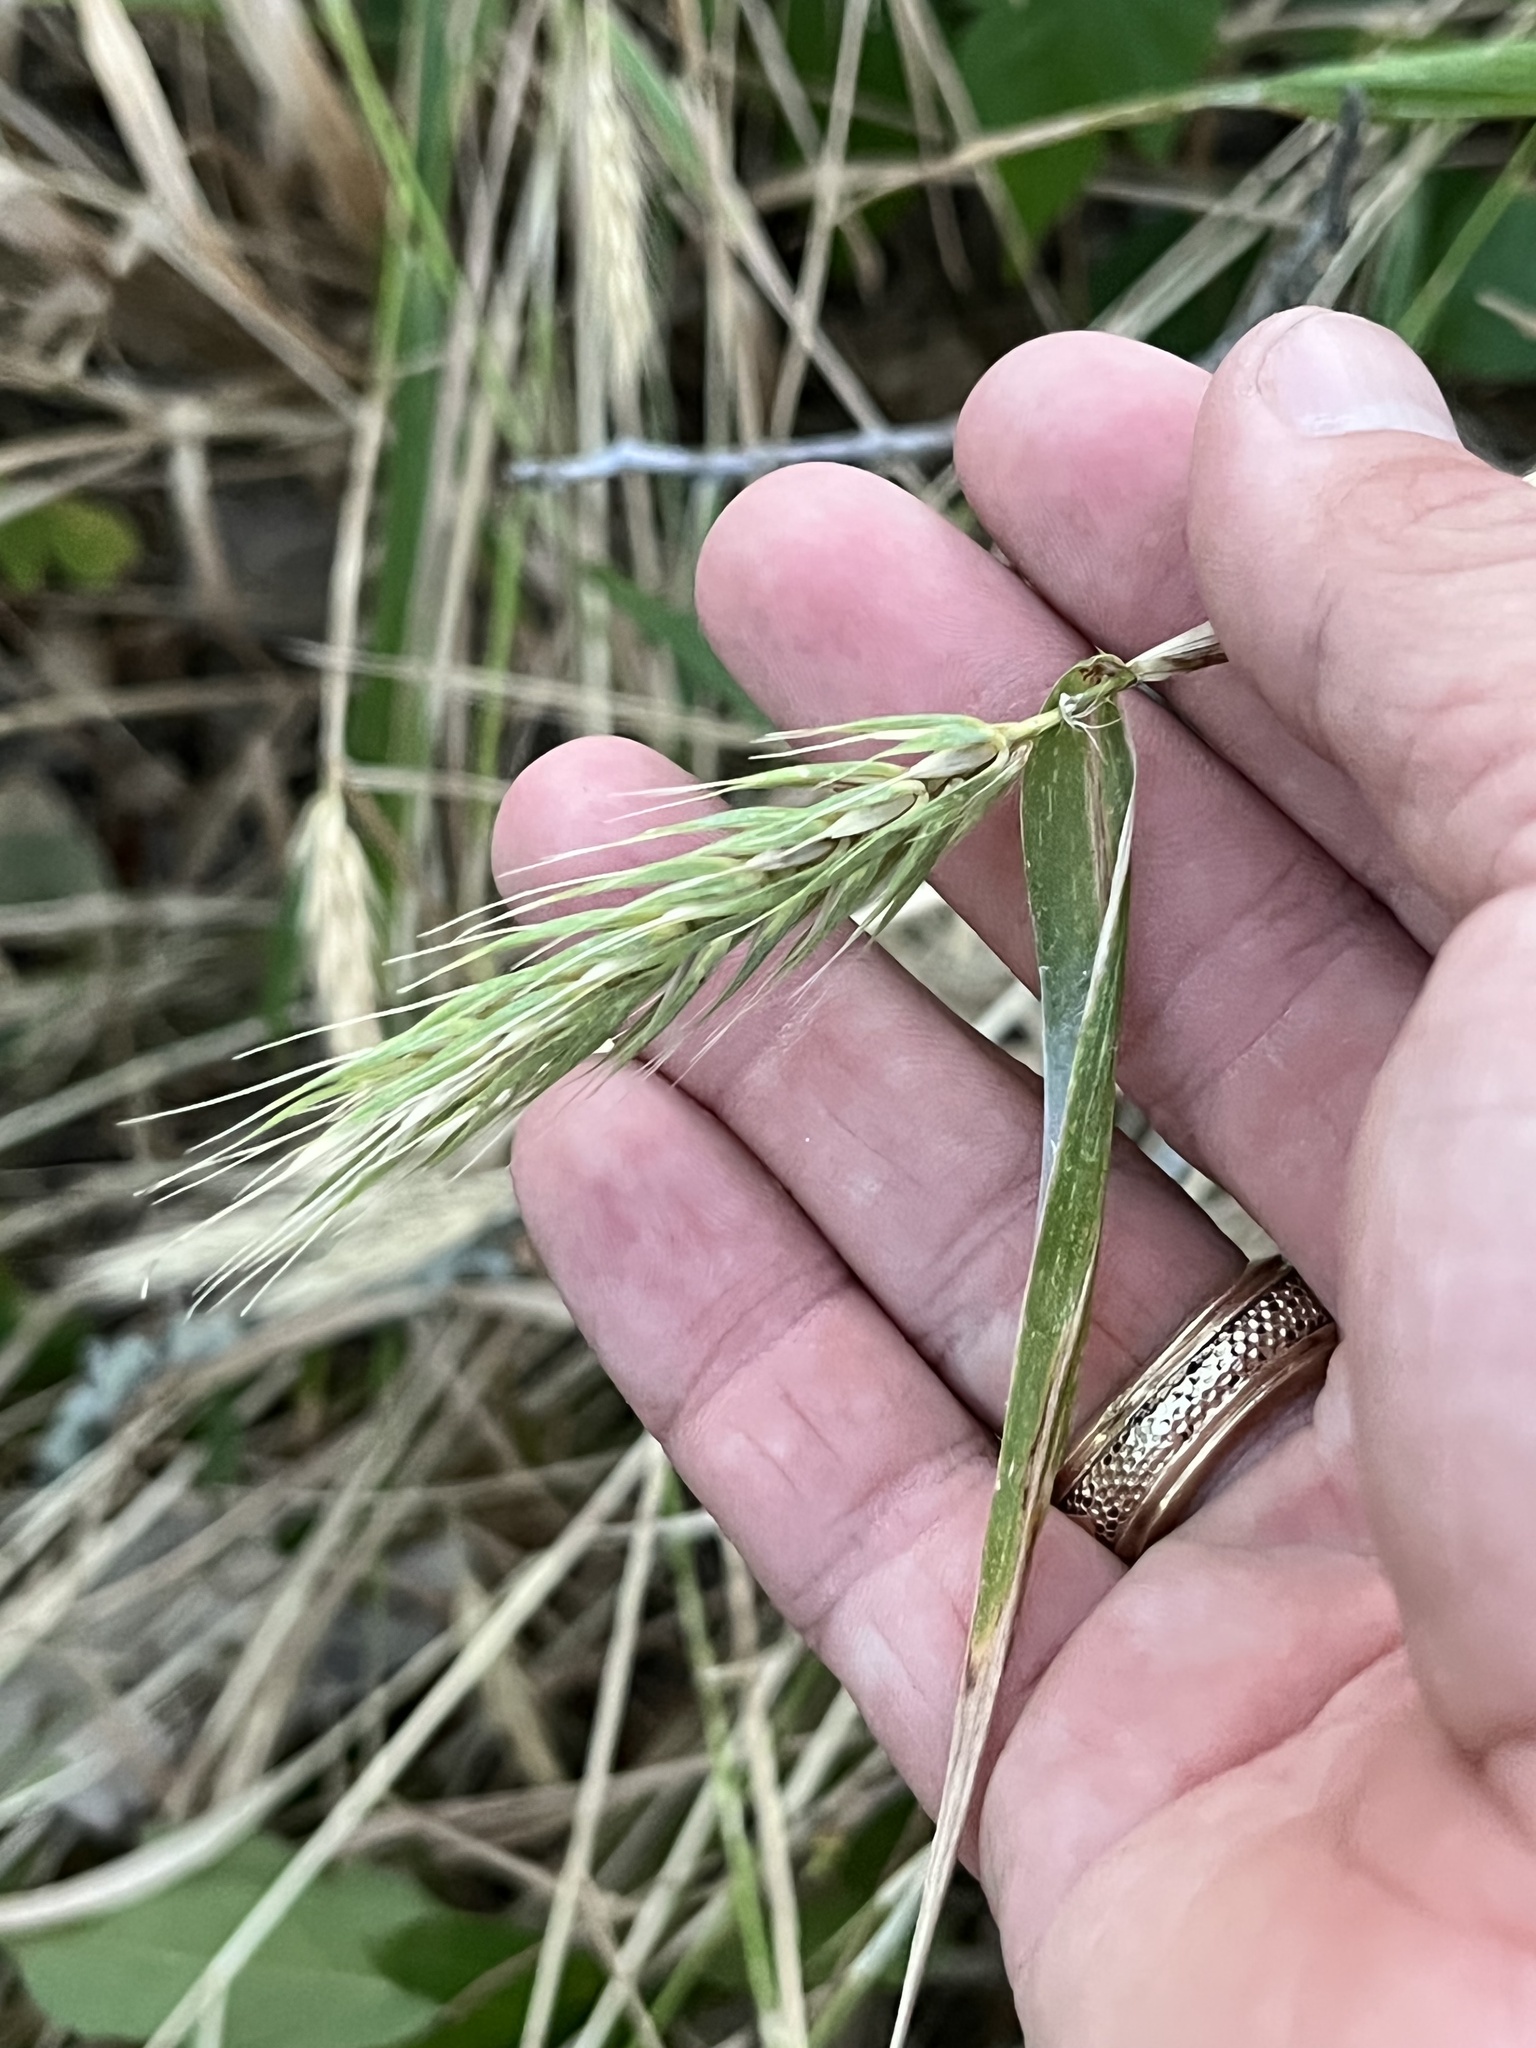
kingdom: Plantae
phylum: Tracheophyta
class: Liliopsida
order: Poales
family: Poaceae
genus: Elymus
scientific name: Elymus virginicus
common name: Common eastern wildrye
